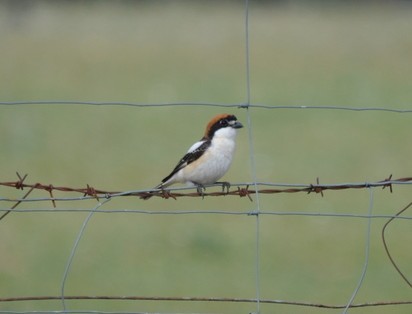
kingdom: Animalia
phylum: Chordata
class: Aves
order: Passeriformes
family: Laniidae
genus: Lanius
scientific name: Lanius senator
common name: Woodchat shrike
